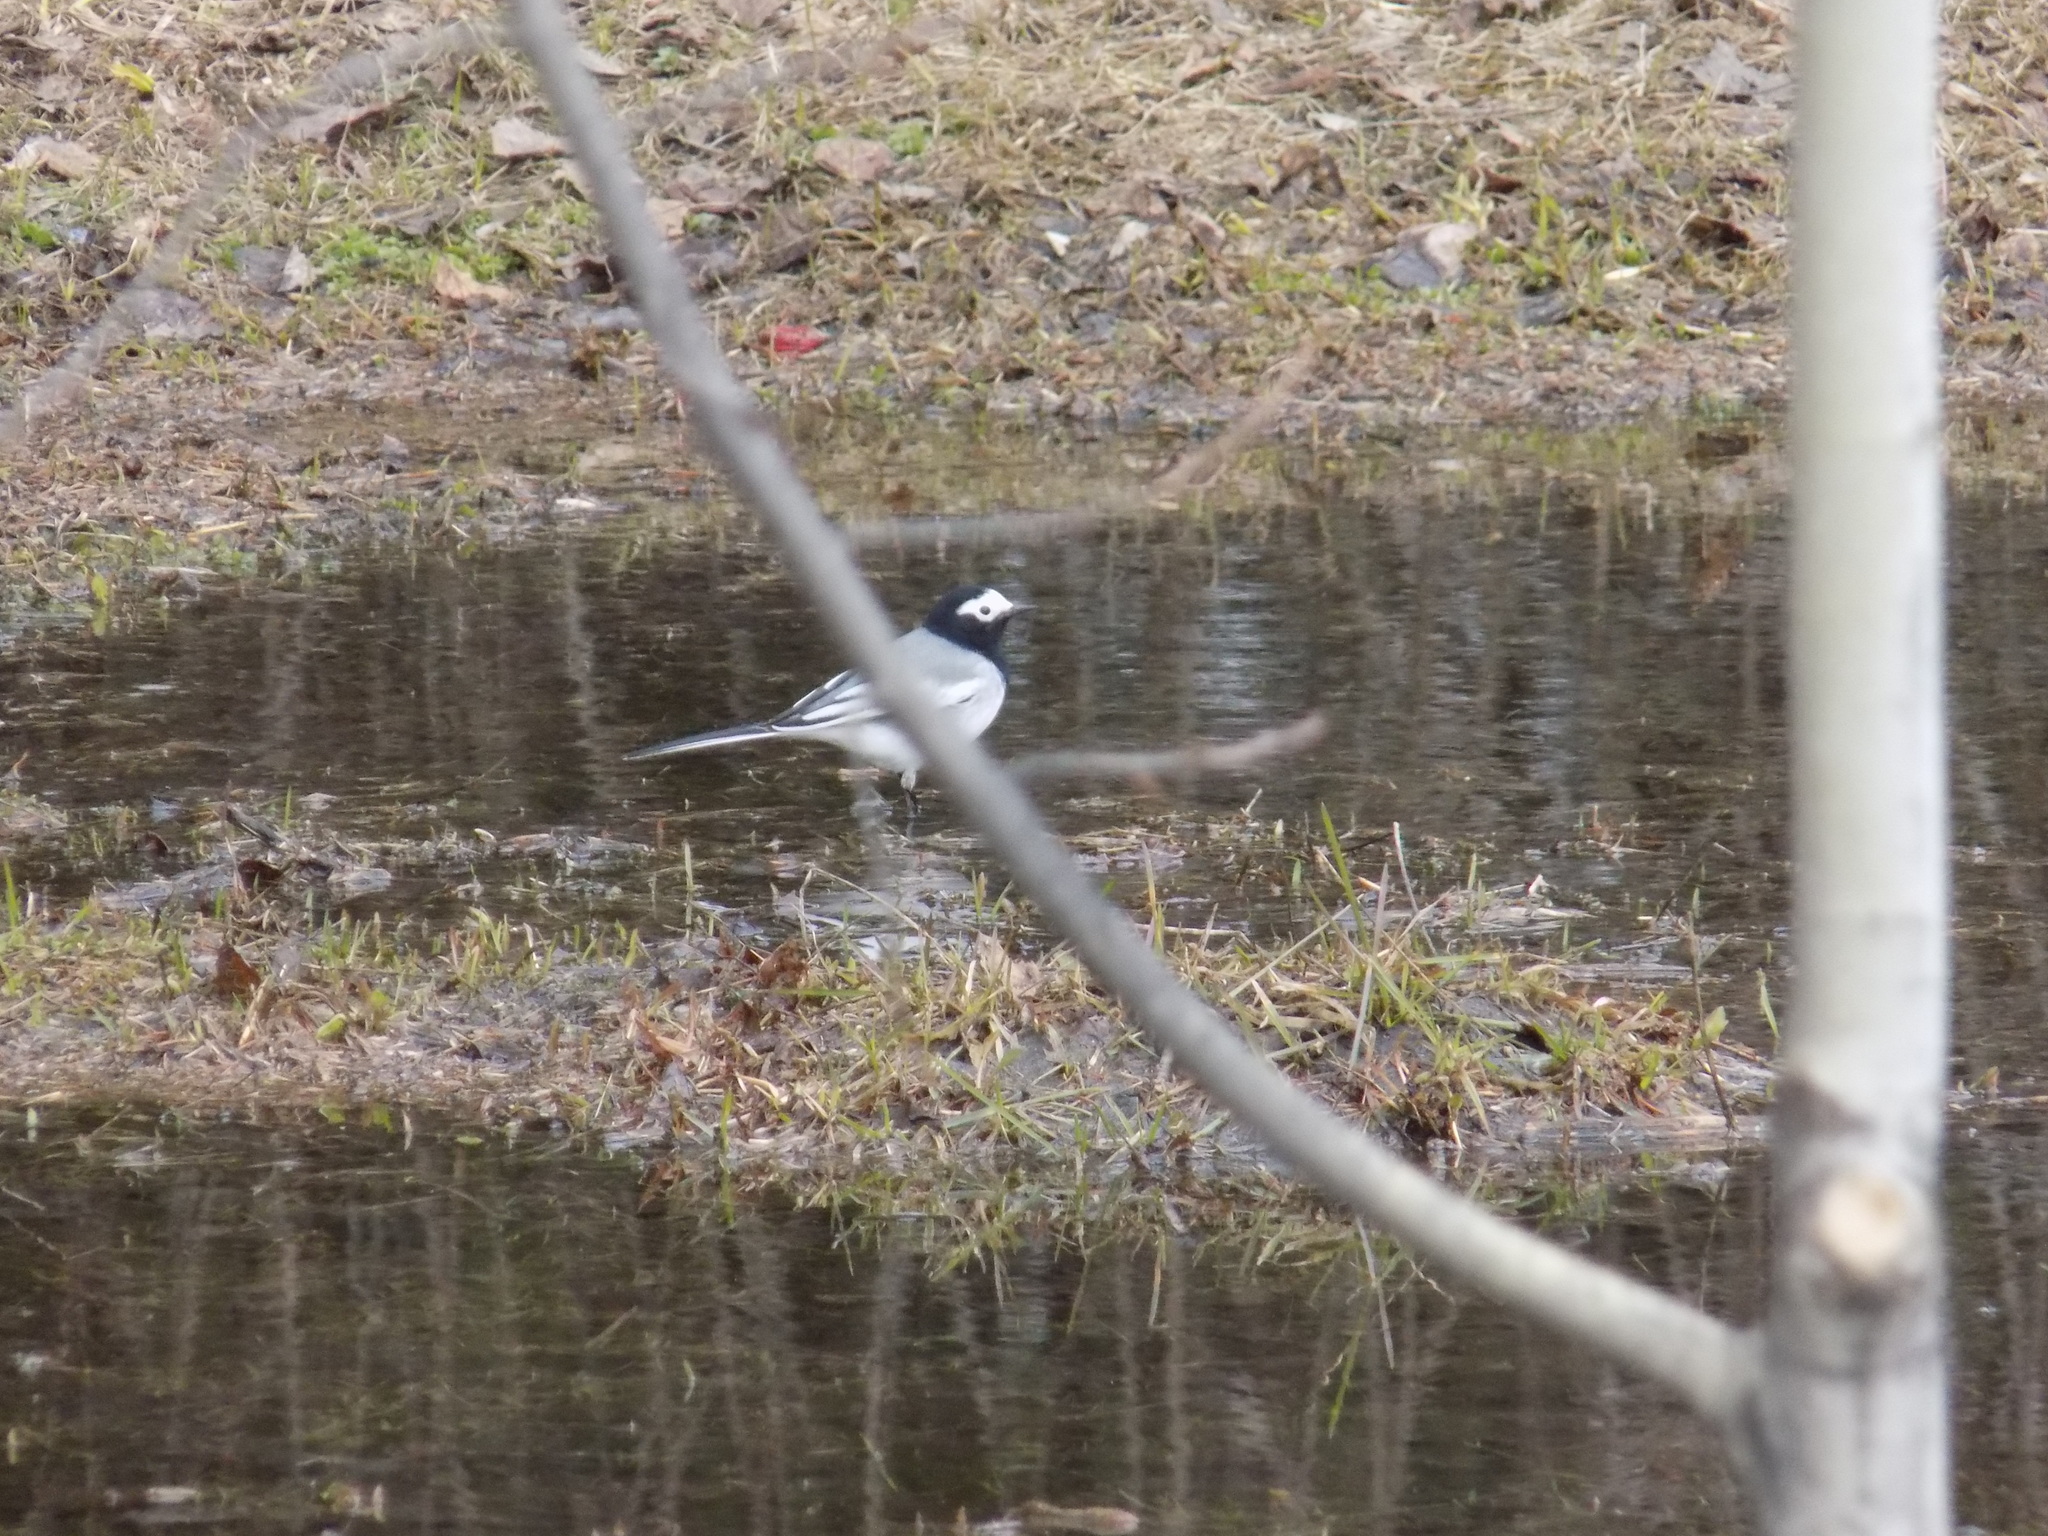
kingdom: Animalia
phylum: Chordata
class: Aves
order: Passeriformes
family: Motacillidae
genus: Motacilla
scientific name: Motacilla alba
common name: White wagtail
